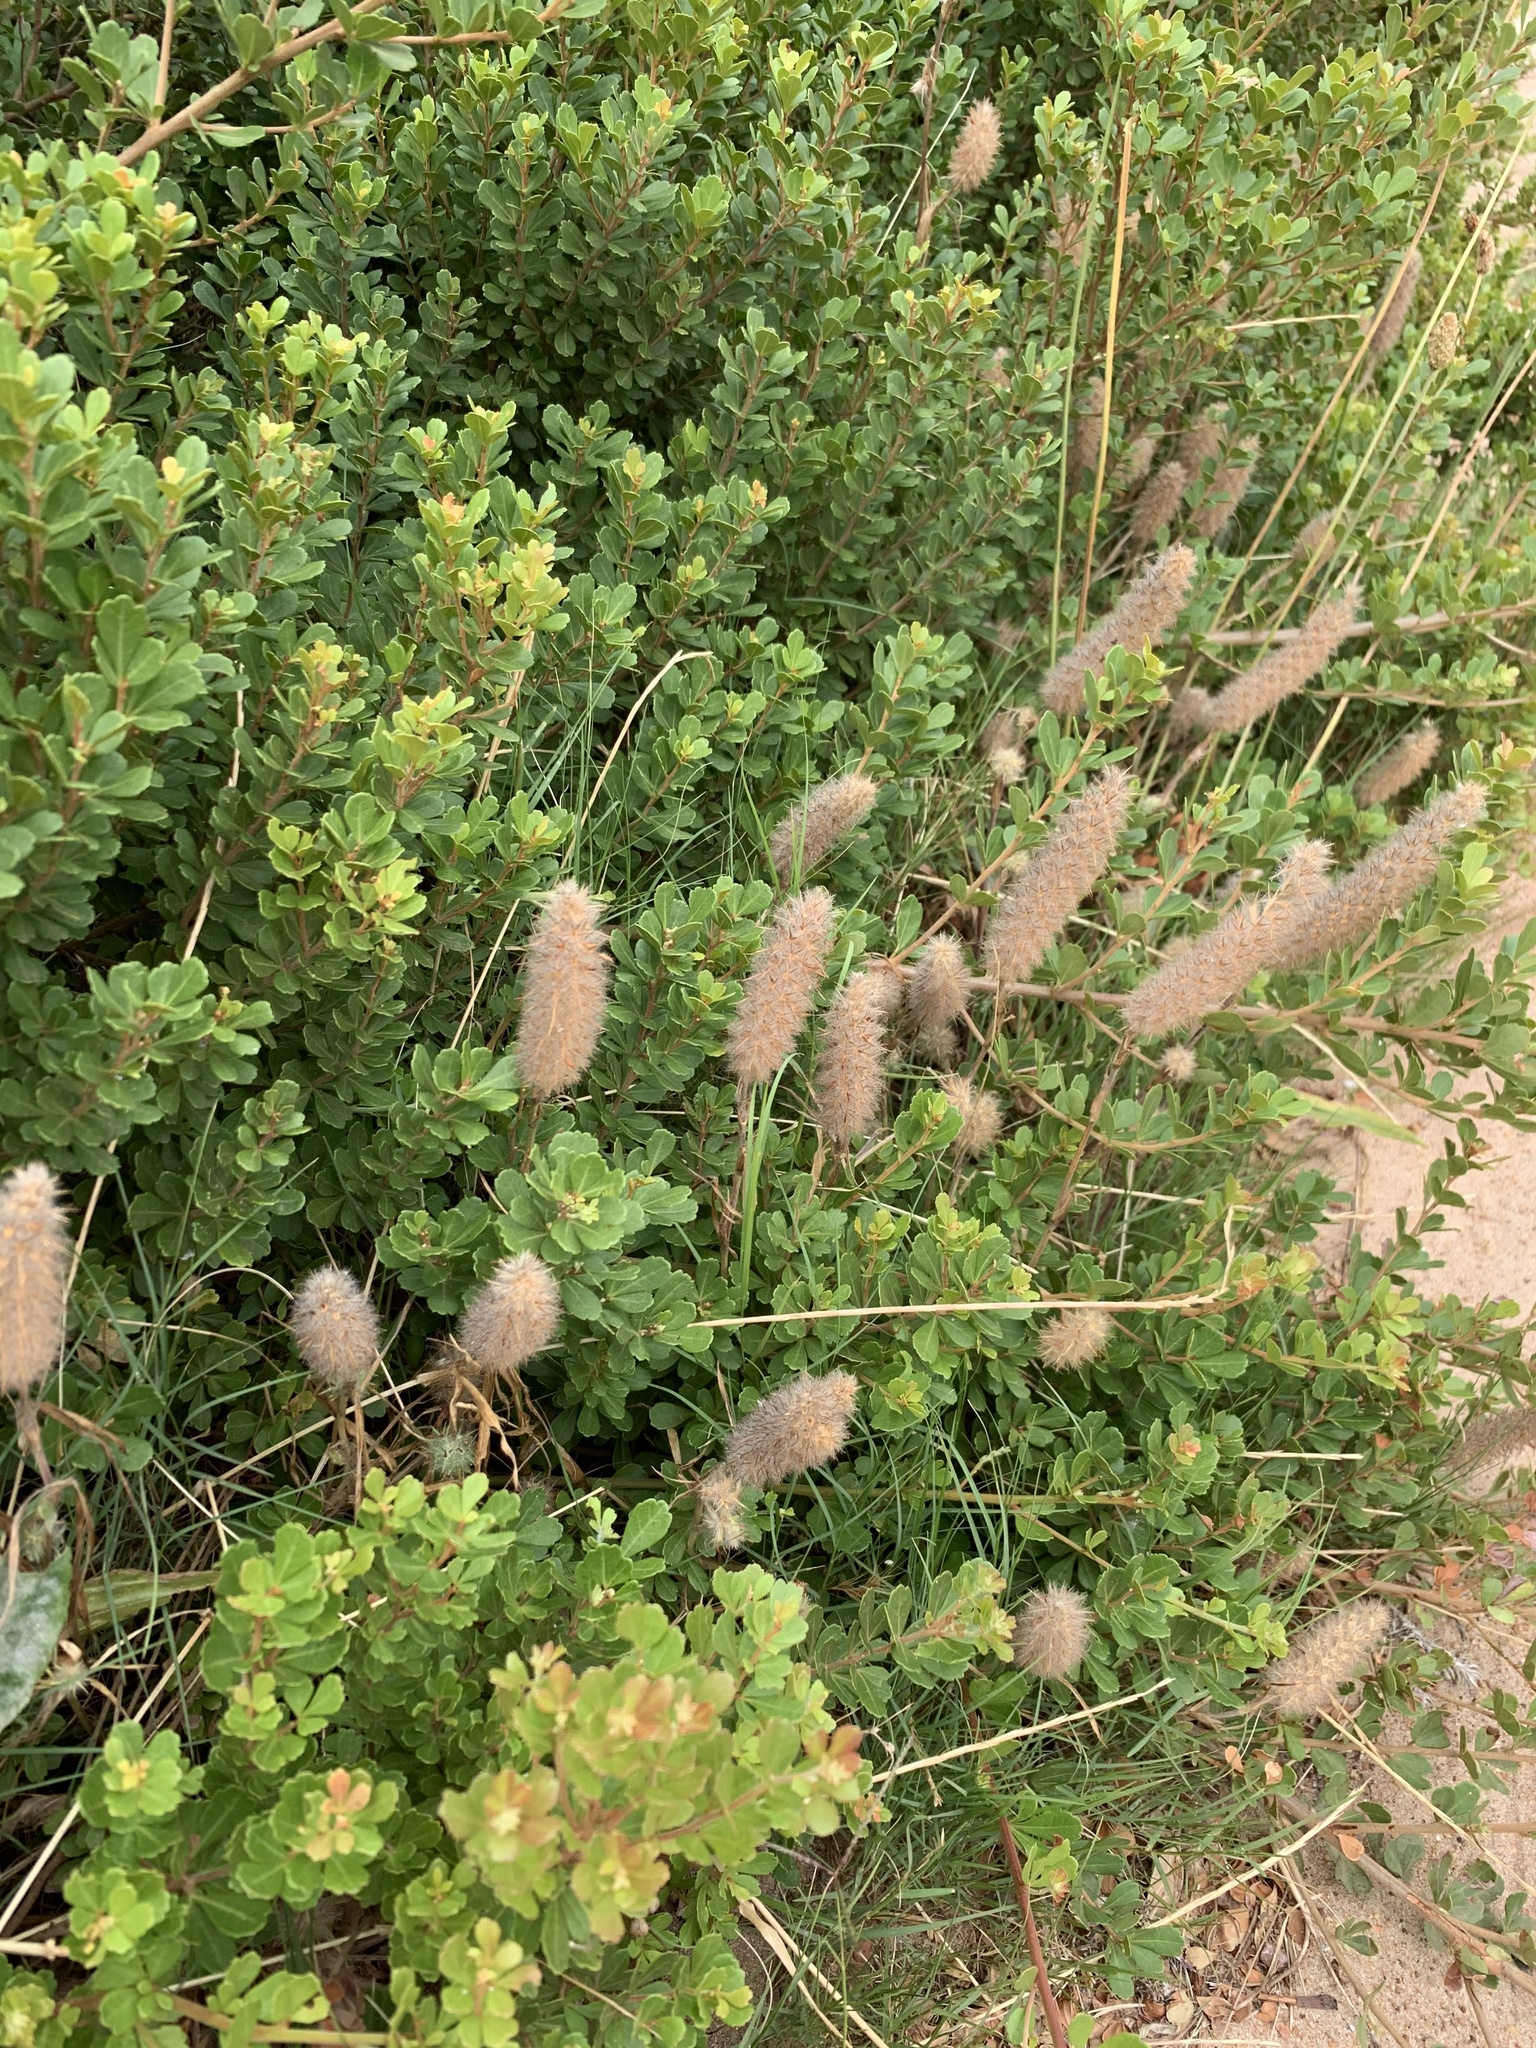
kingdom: Plantae
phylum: Tracheophyta
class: Magnoliopsida
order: Fabales
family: Fabaceae
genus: Trifolium
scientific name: Trifolium angustifolium
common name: Narrow clover
